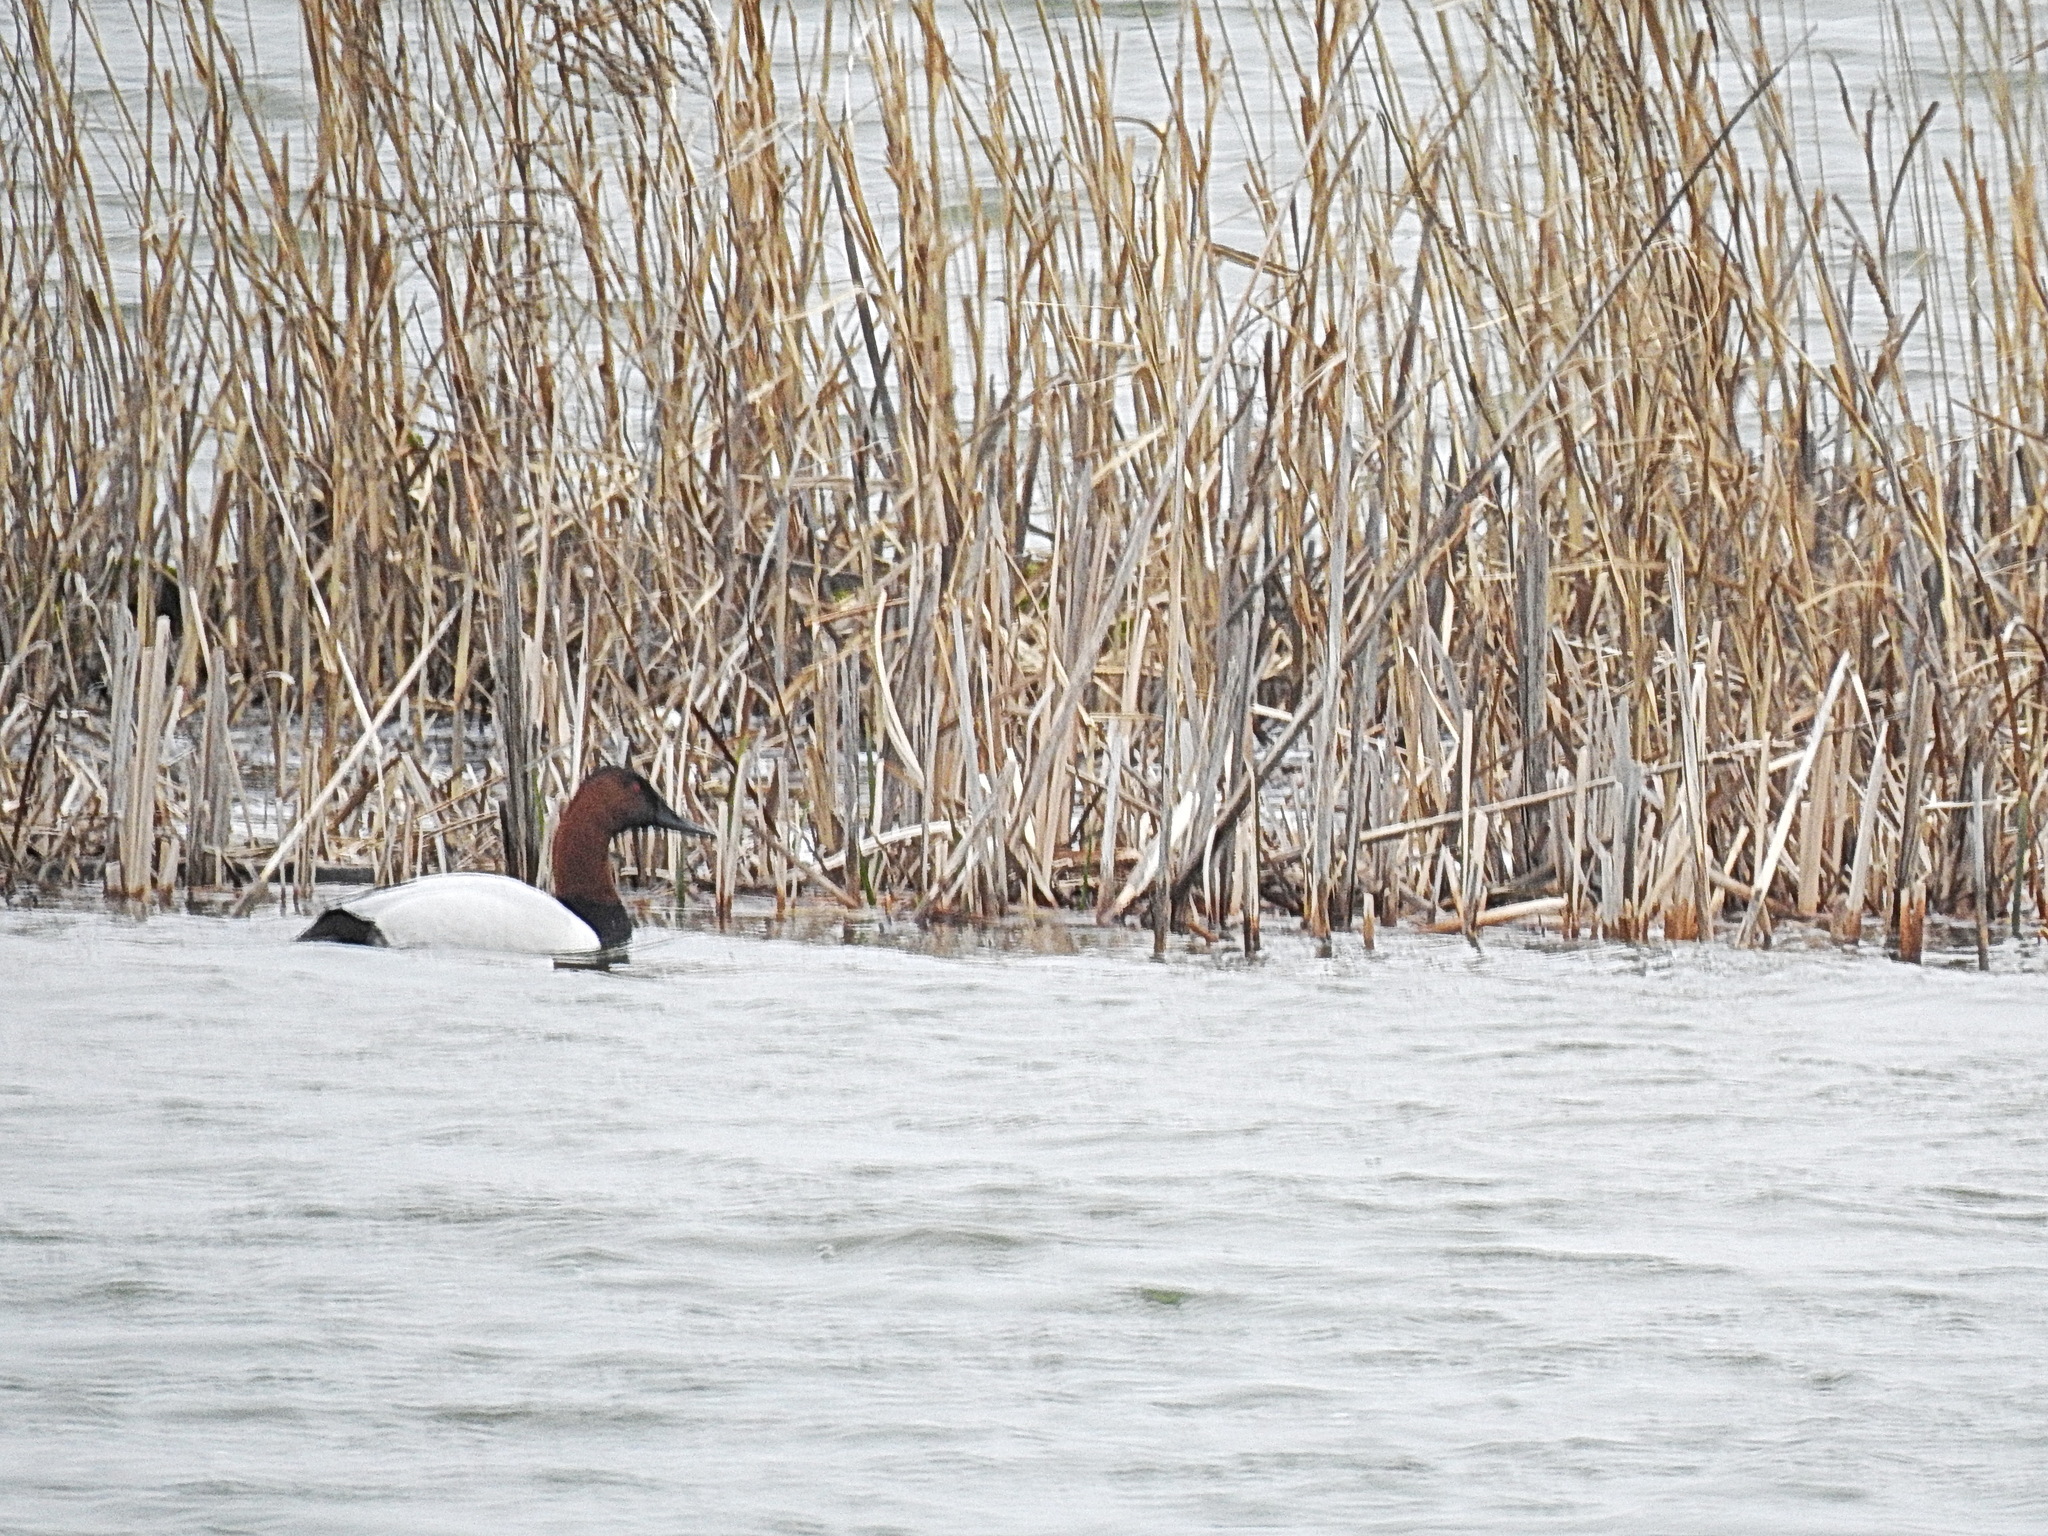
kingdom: Animalia
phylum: Chordata
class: Aves
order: Anseriformes
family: Anatidae
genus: Aythya
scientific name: Aythya valisineria
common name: Canvasback
